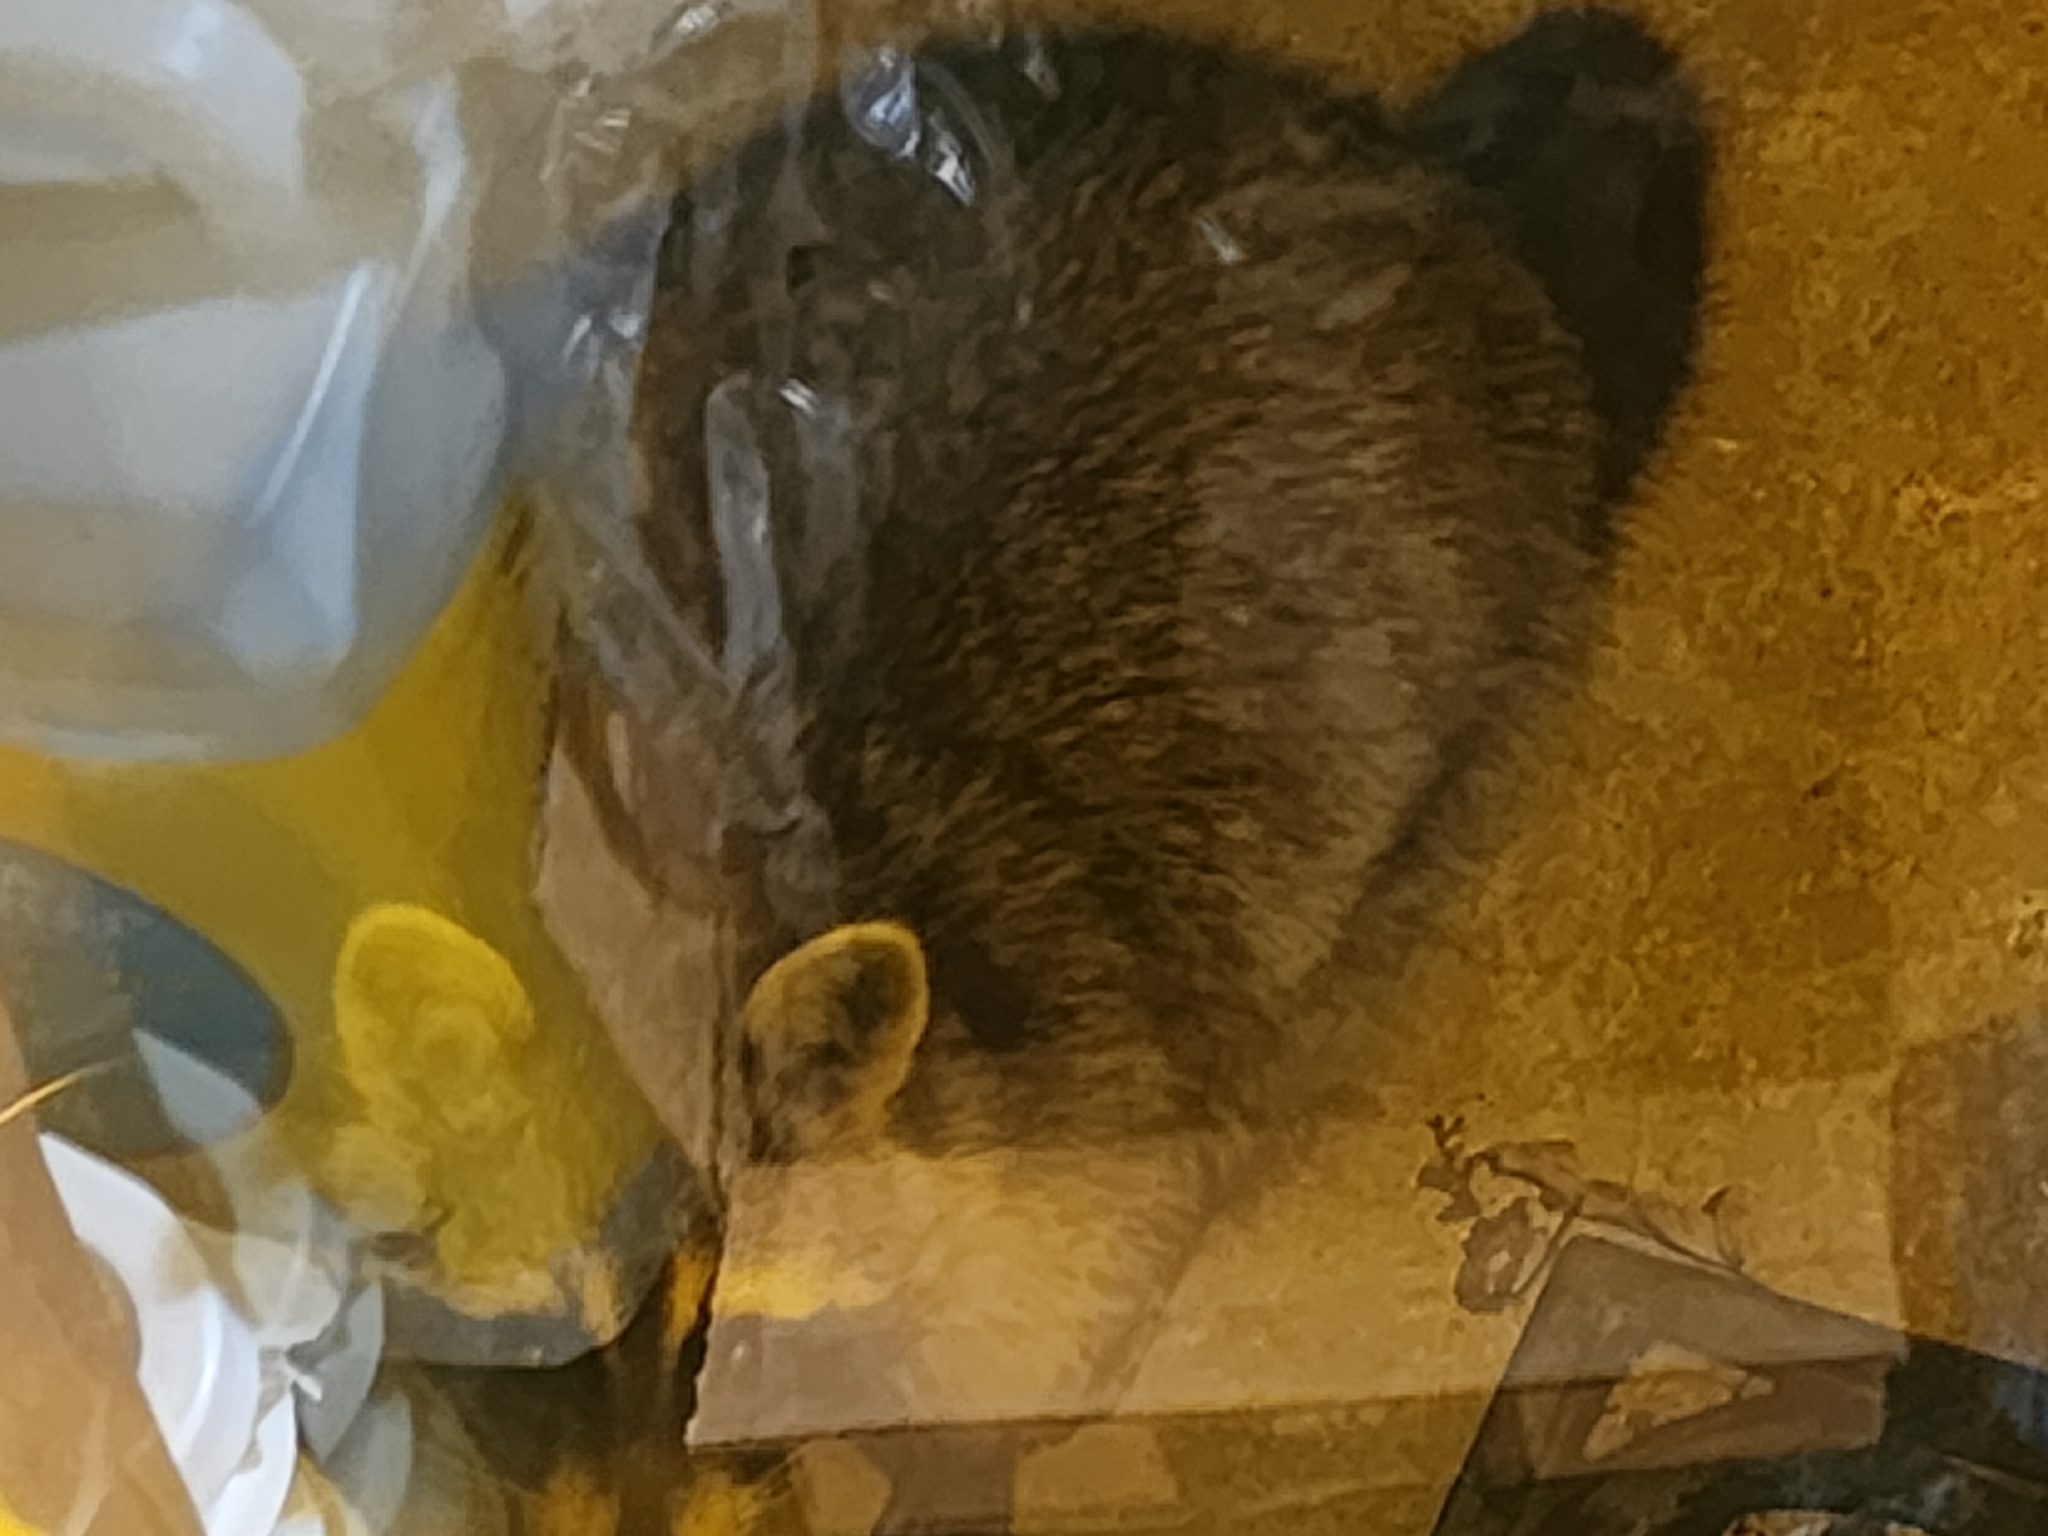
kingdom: Animalia
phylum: Chordata
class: Mammalia
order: Carnivora
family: Procyonidae
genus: Procyon
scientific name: Procyon lotor
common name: Raccoon
